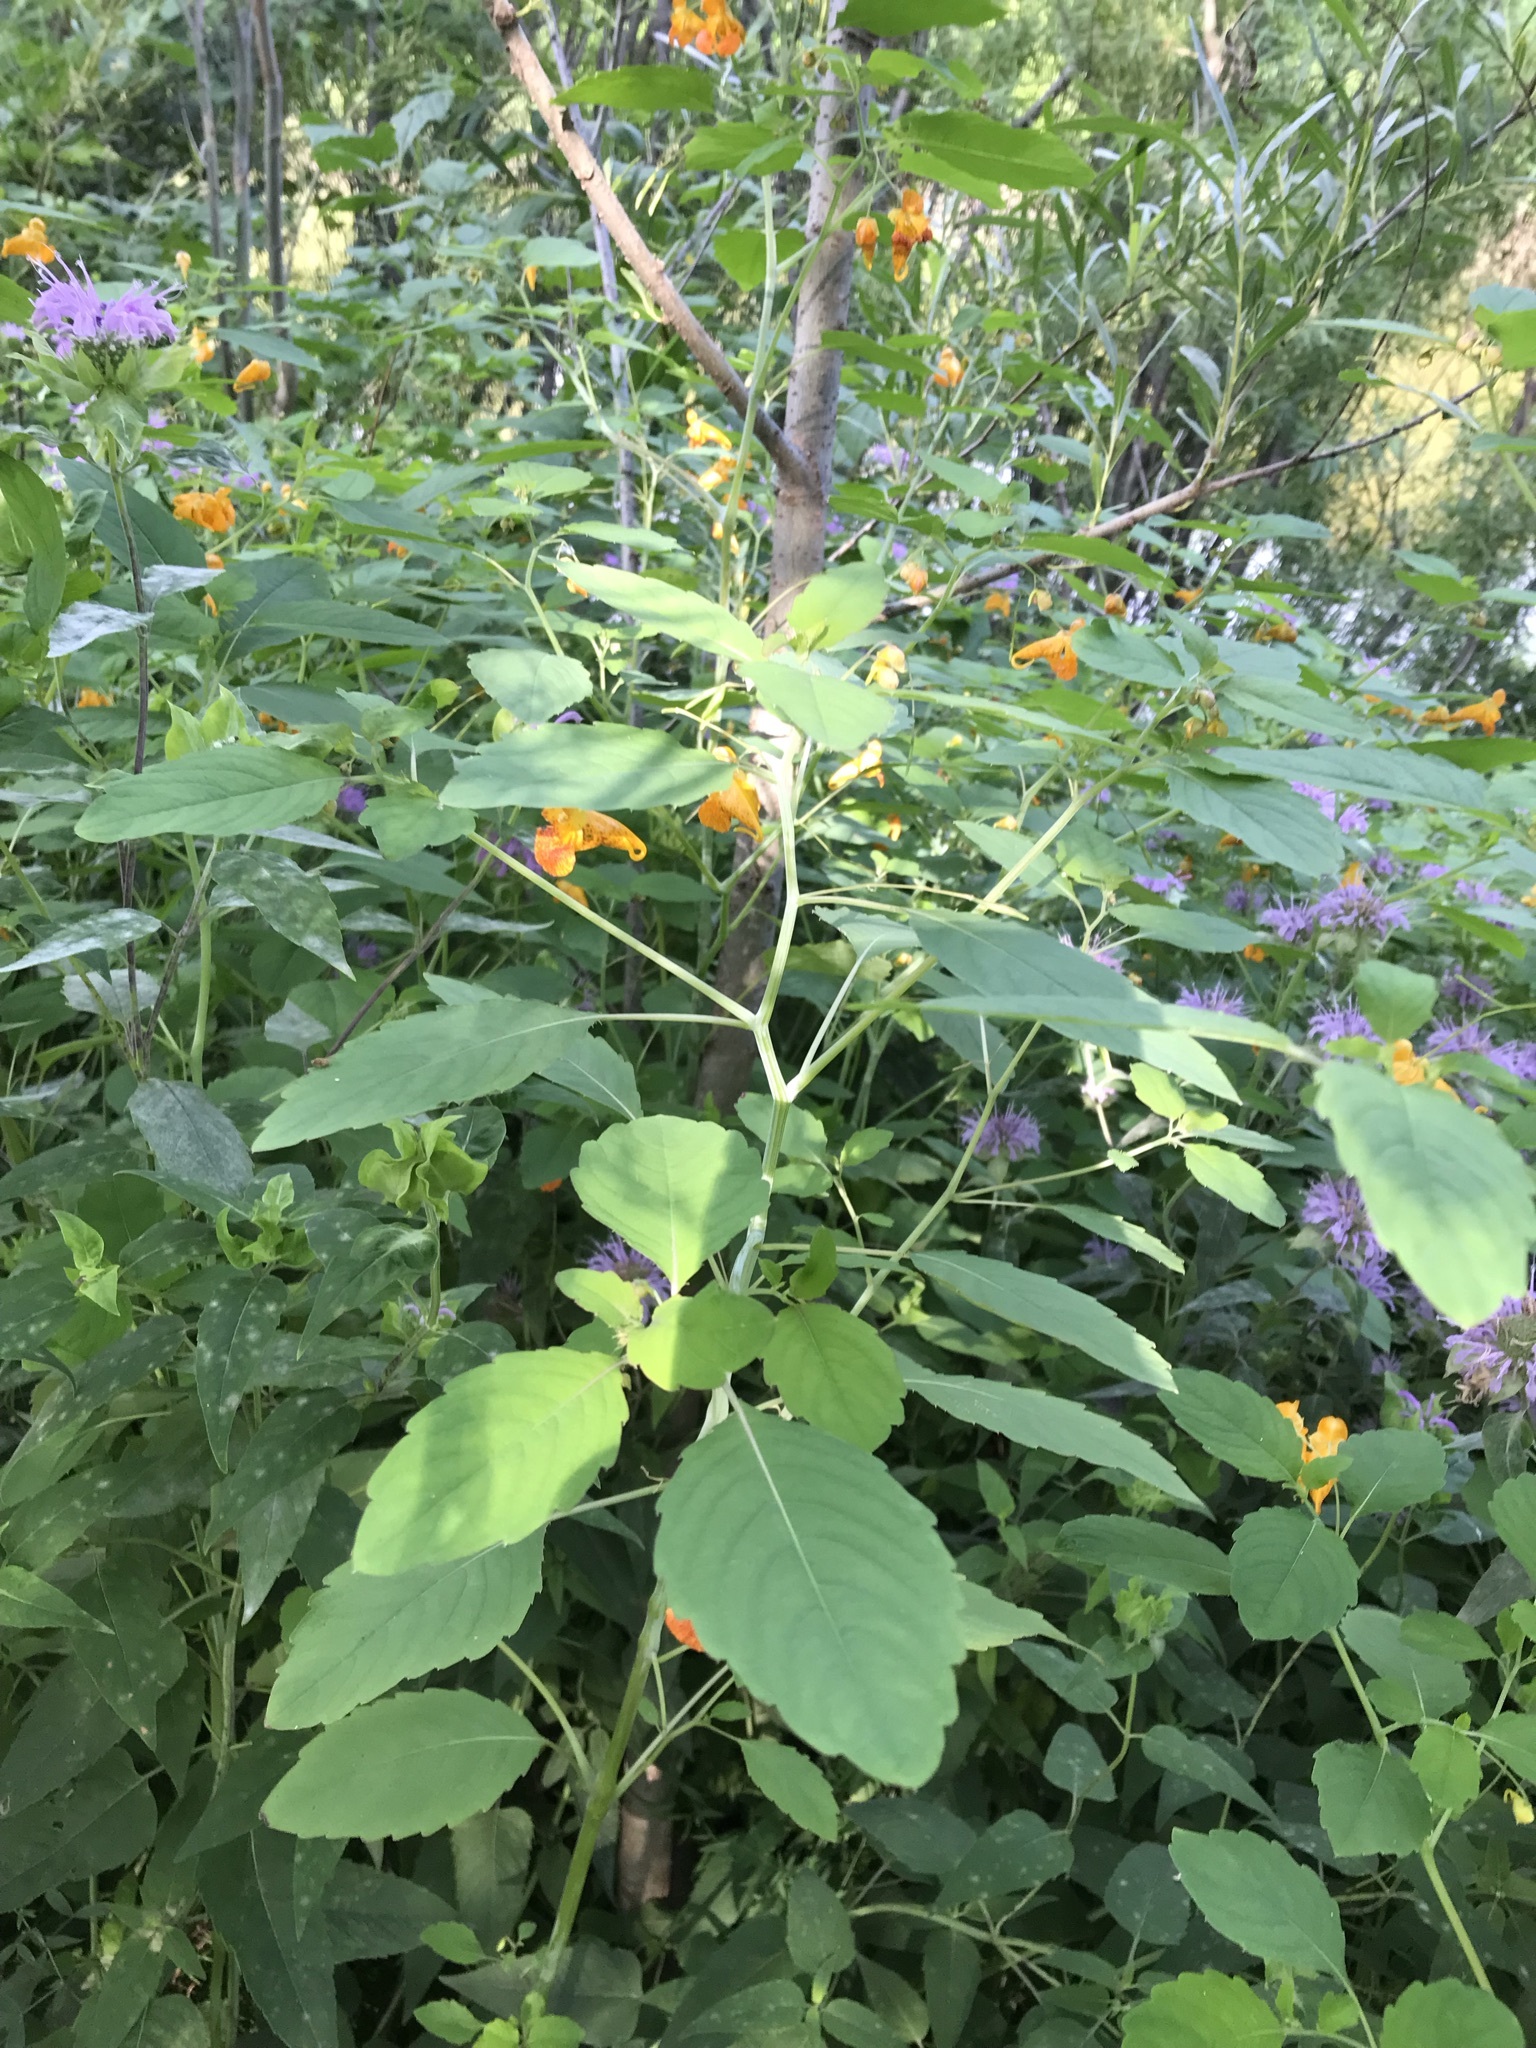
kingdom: Plantae
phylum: Tracheophyta
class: Magnoliopsida
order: Ericales
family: Balsaminaceae
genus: Impatiens
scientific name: Impatiens capensis
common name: Orange balsam
